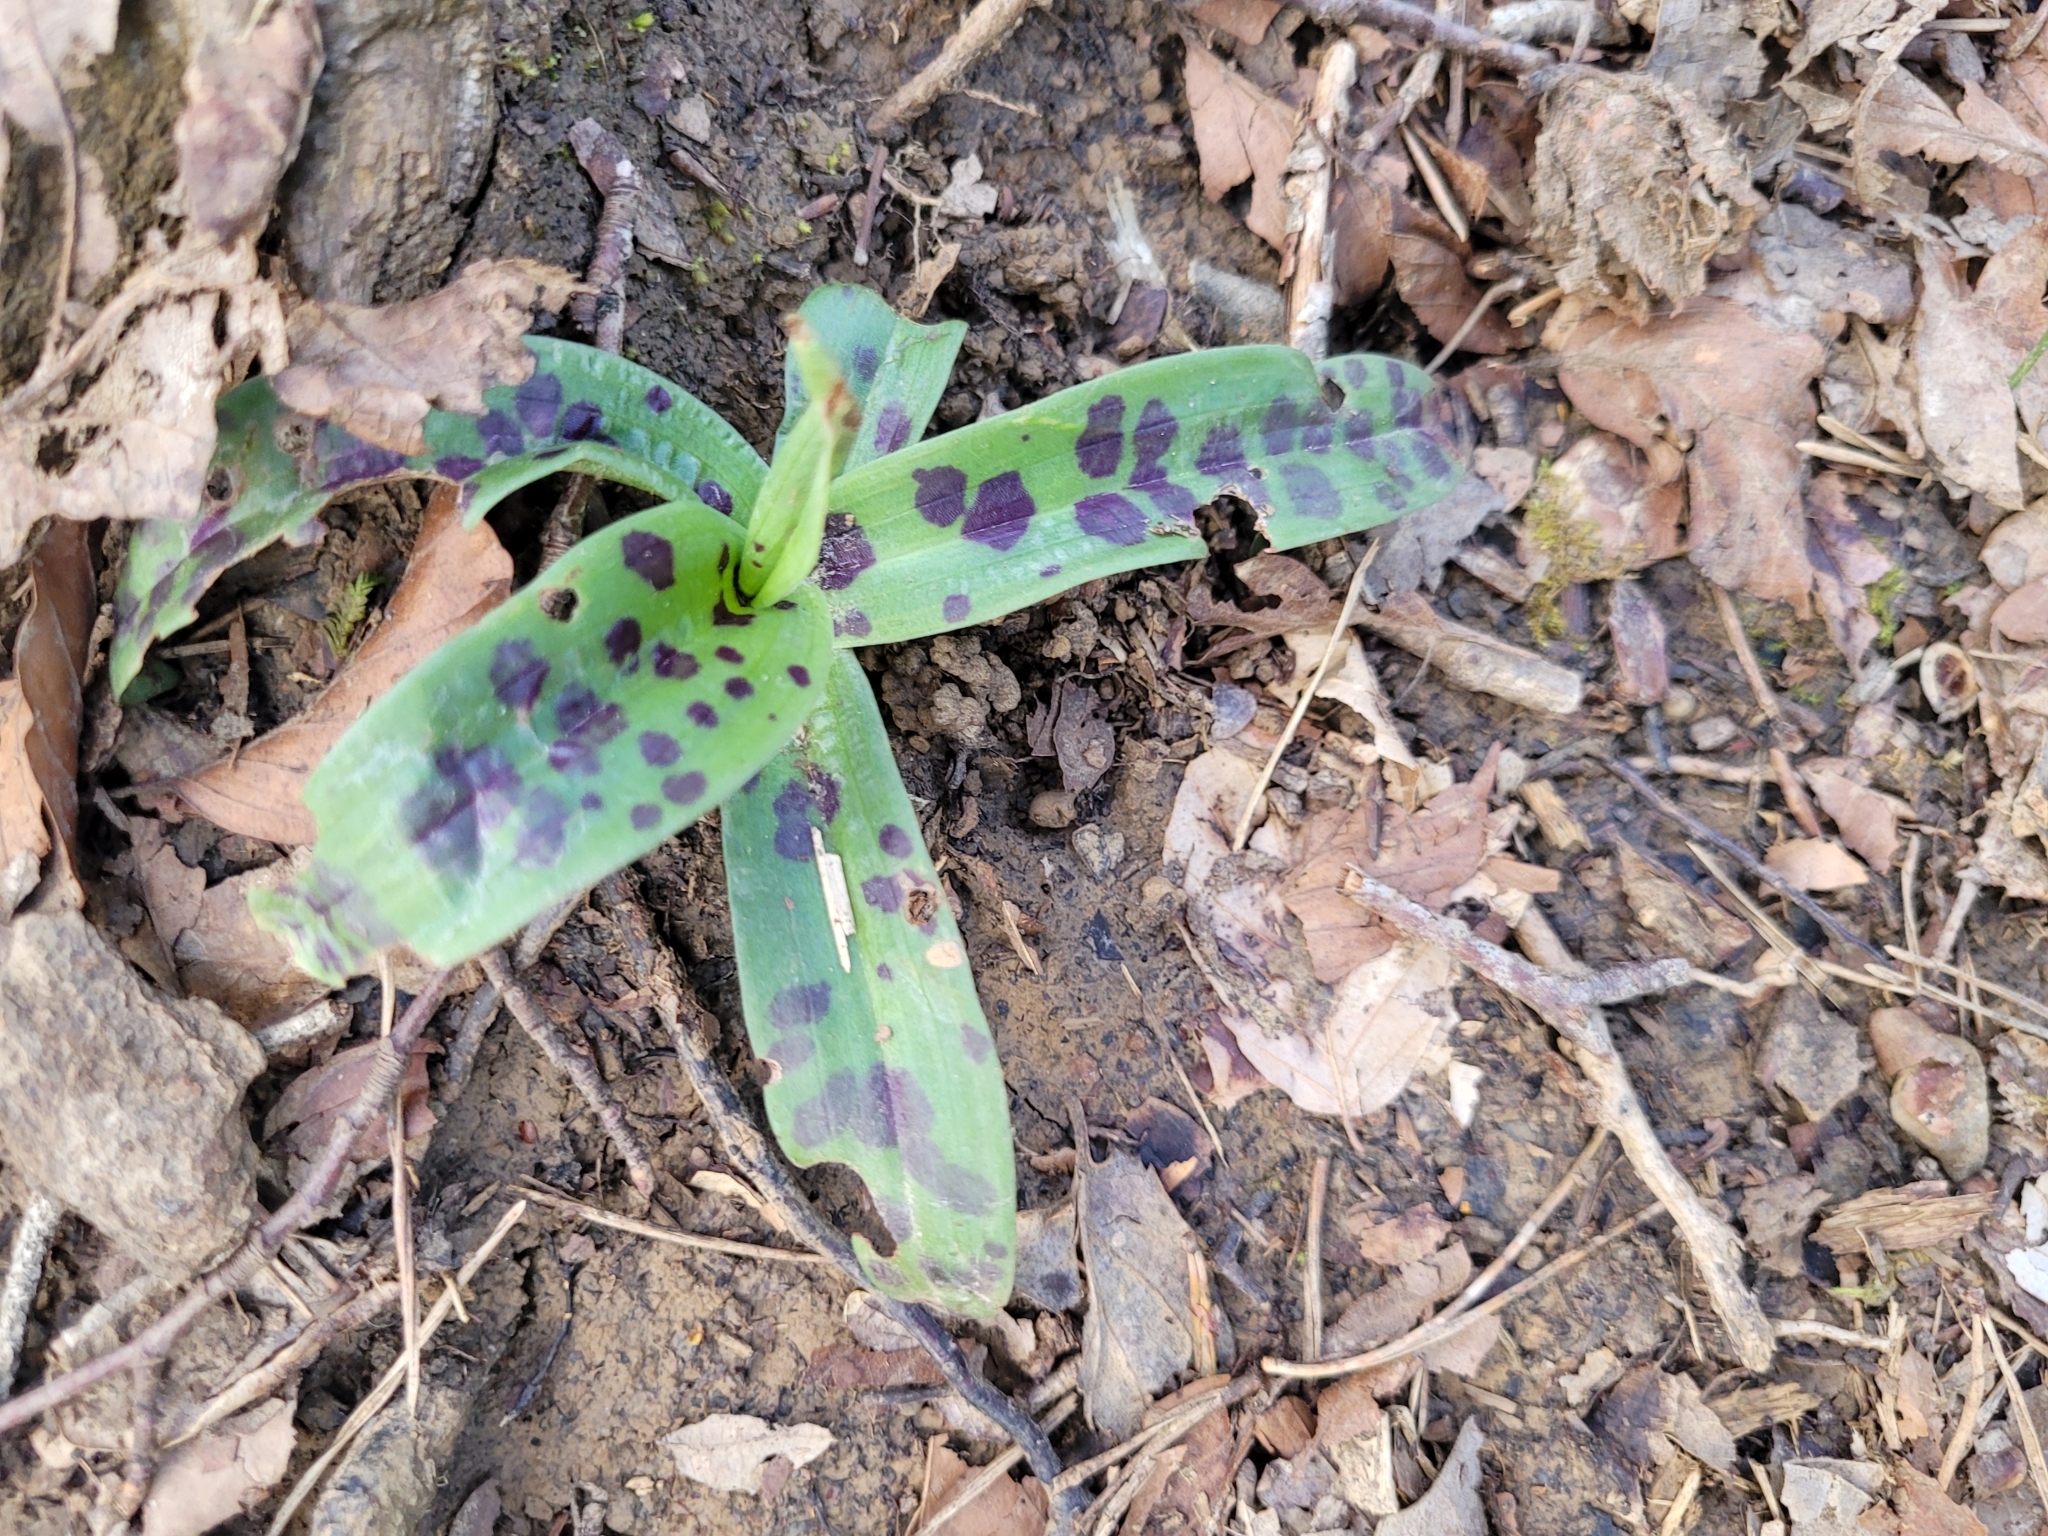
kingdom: Plantae
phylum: Tracheophyta
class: Liliopsida
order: Asparagales
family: Orchidaceae
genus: Orchis
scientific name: Orchis mascula
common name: Early-purple orchid
